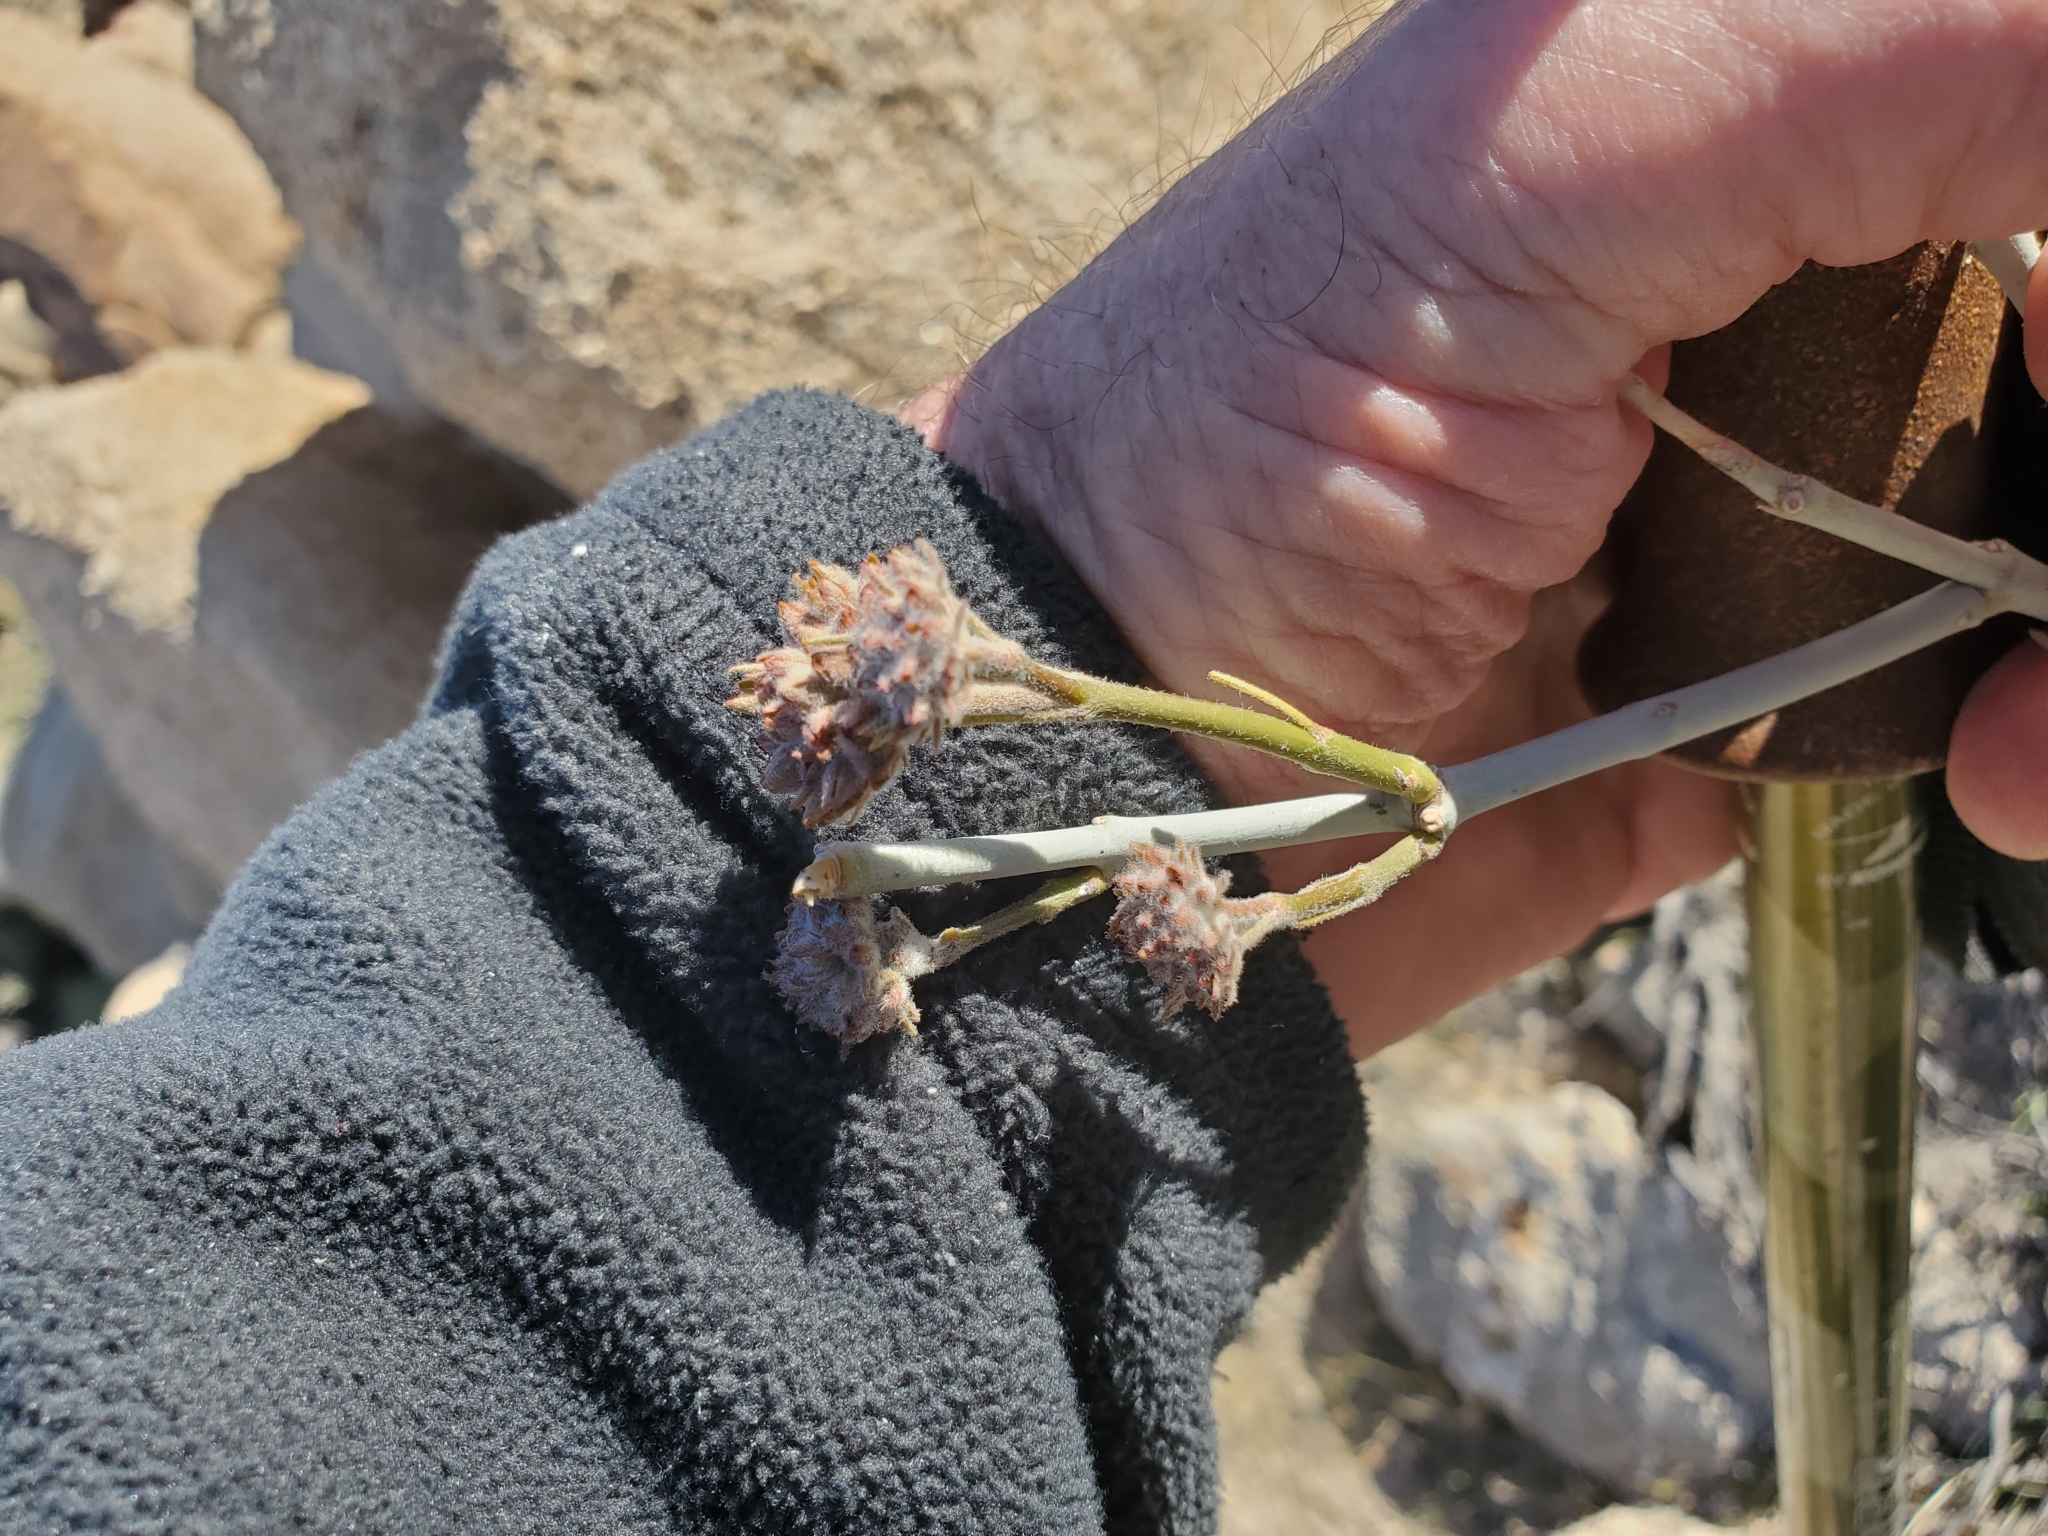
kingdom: Plantae
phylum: Tracheophyta
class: Magnoliopsida
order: Gentianales
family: Apocynaceae
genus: Asclepias
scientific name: Asclepias albicans
